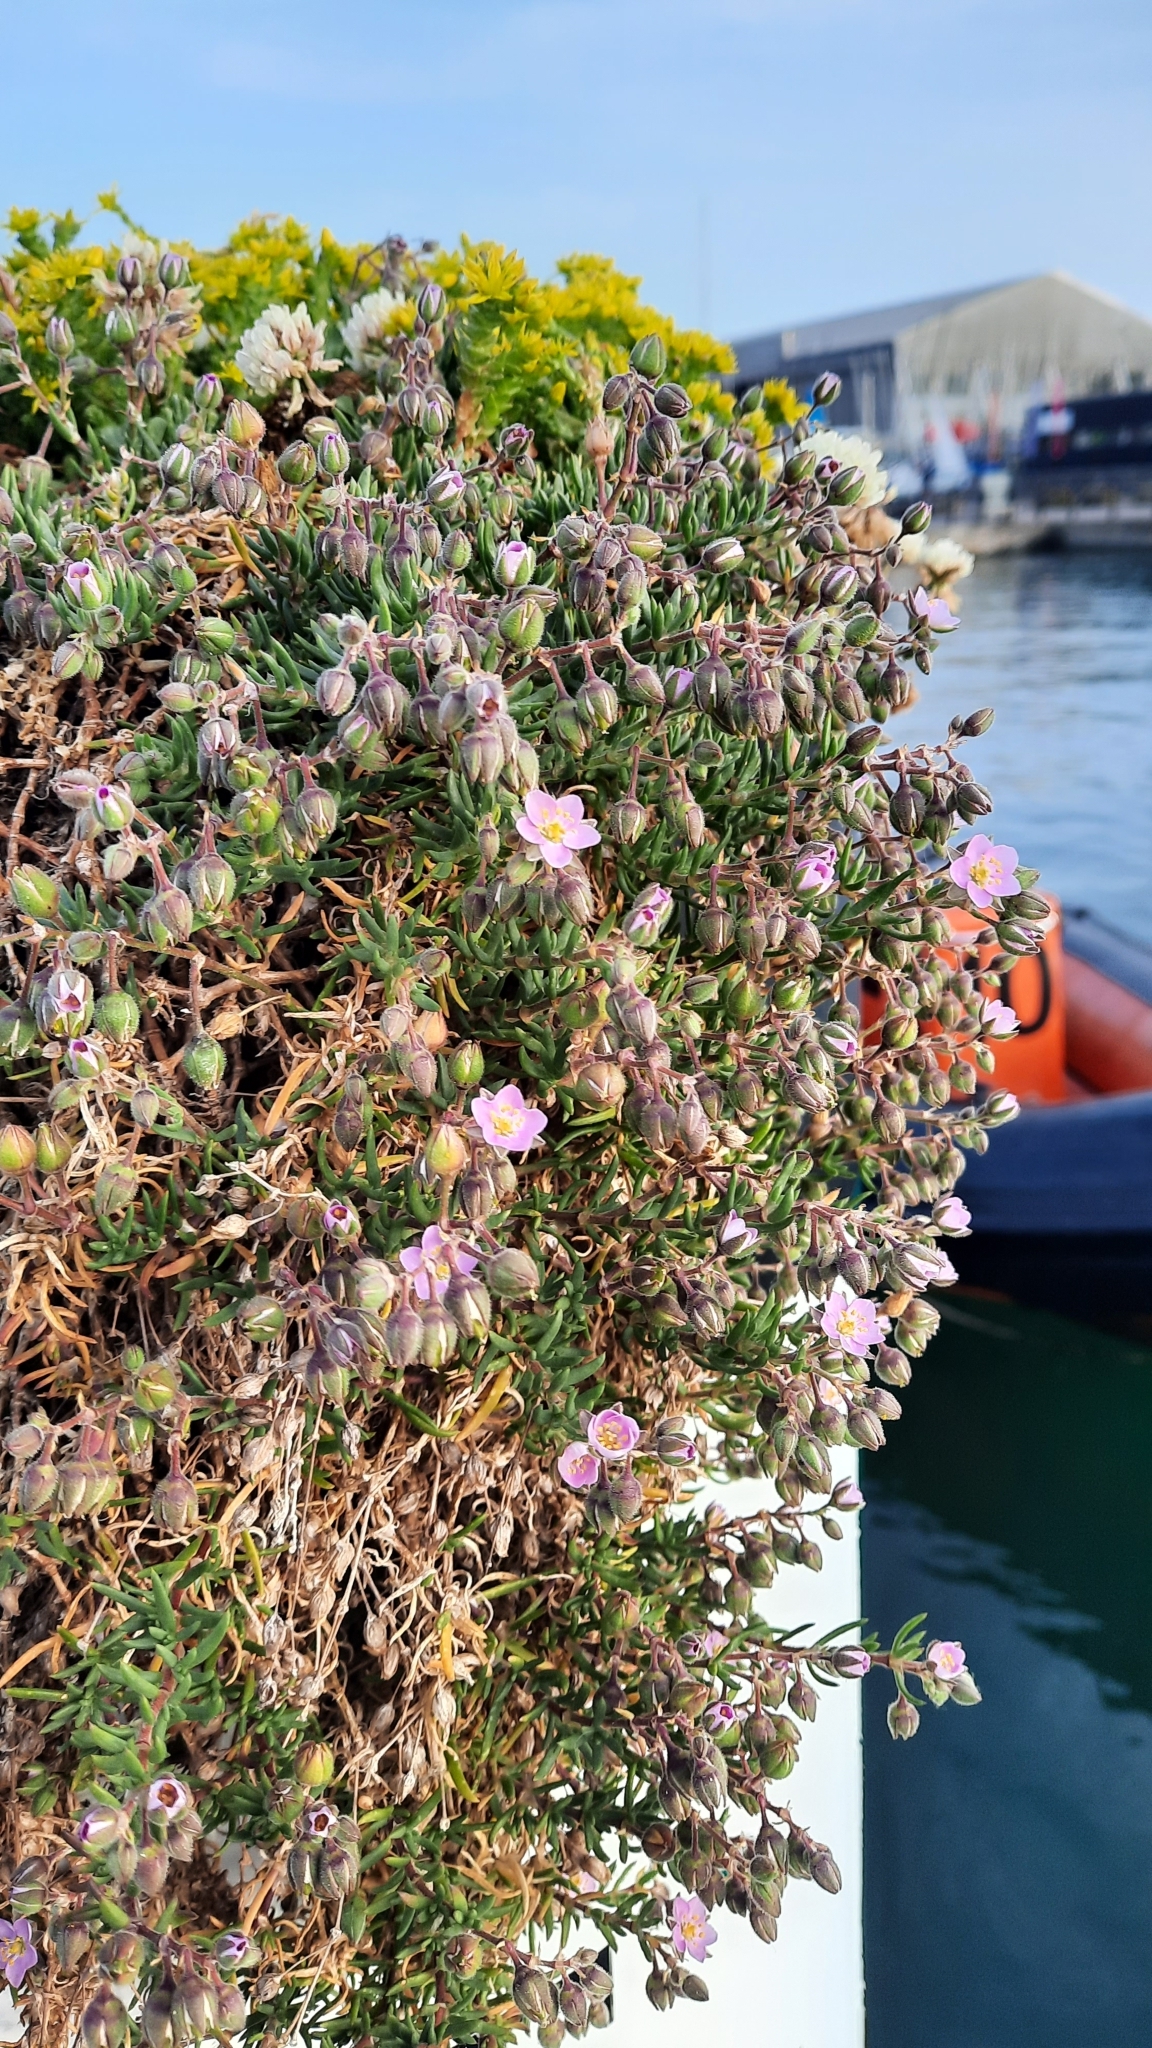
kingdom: Plantae
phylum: Tracheophyta
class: Magnoliopsida
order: Caryophyllales
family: Caryophyllaceae
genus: Spergularia
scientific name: Spergularia rupicola
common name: Cliff sand-spurrey
